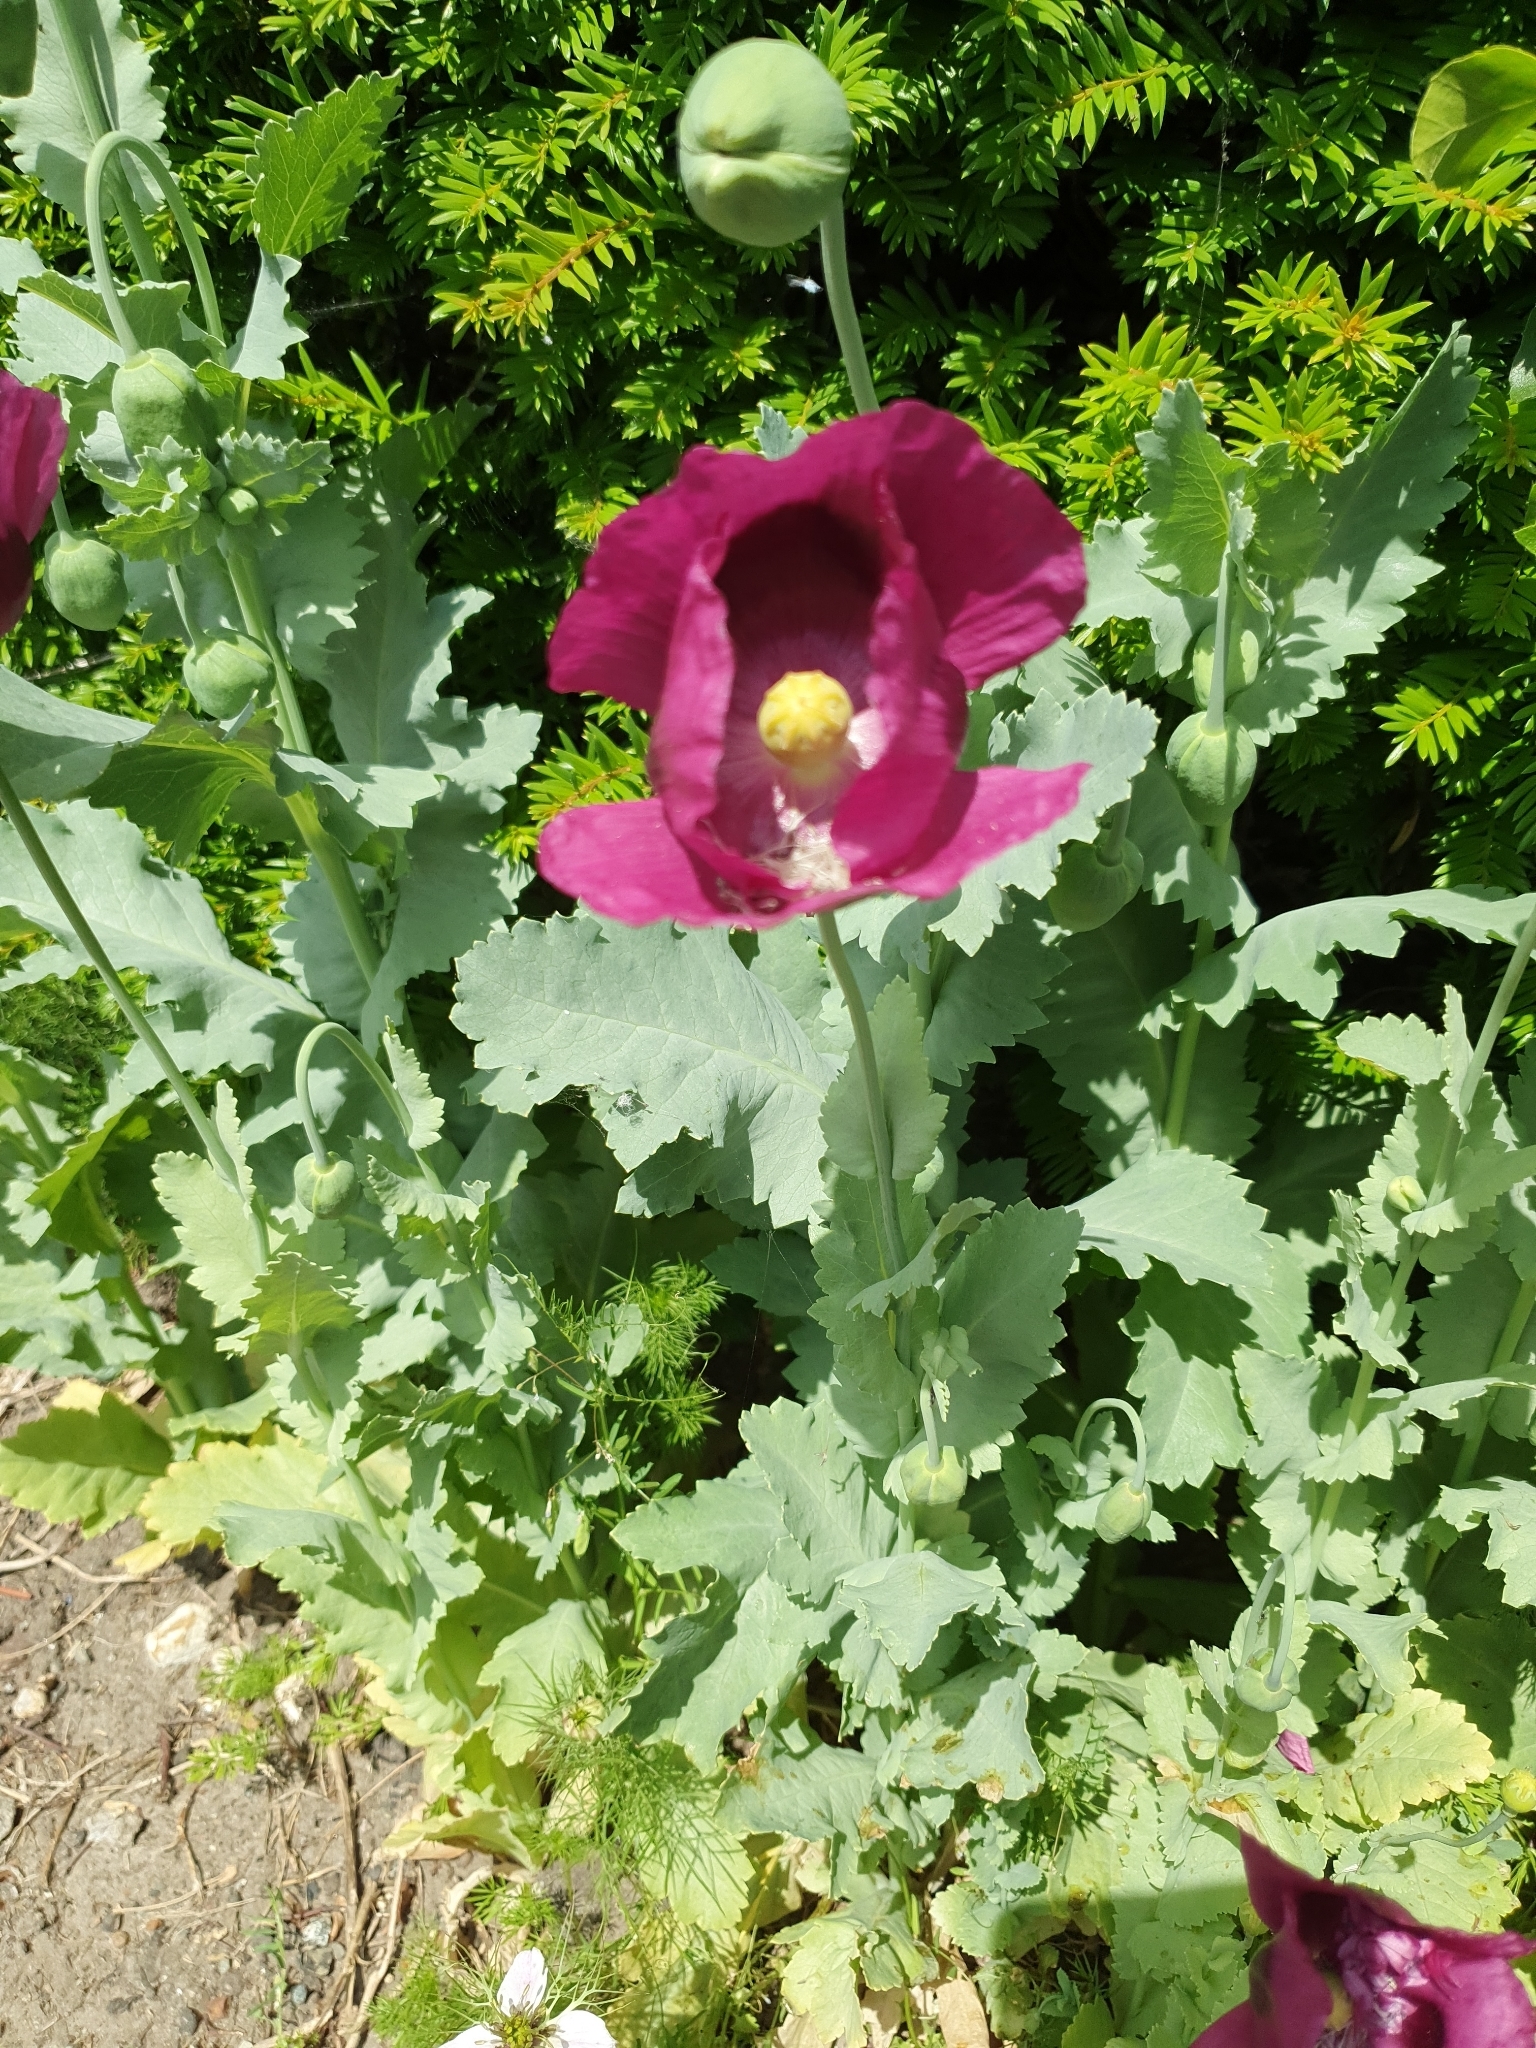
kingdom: Plantae
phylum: Tracheophyta
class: Magnoliopsida
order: Ranunculales
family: Papaveraceae
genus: Papaver
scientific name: Papaver somniferum
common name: Opium poppy
